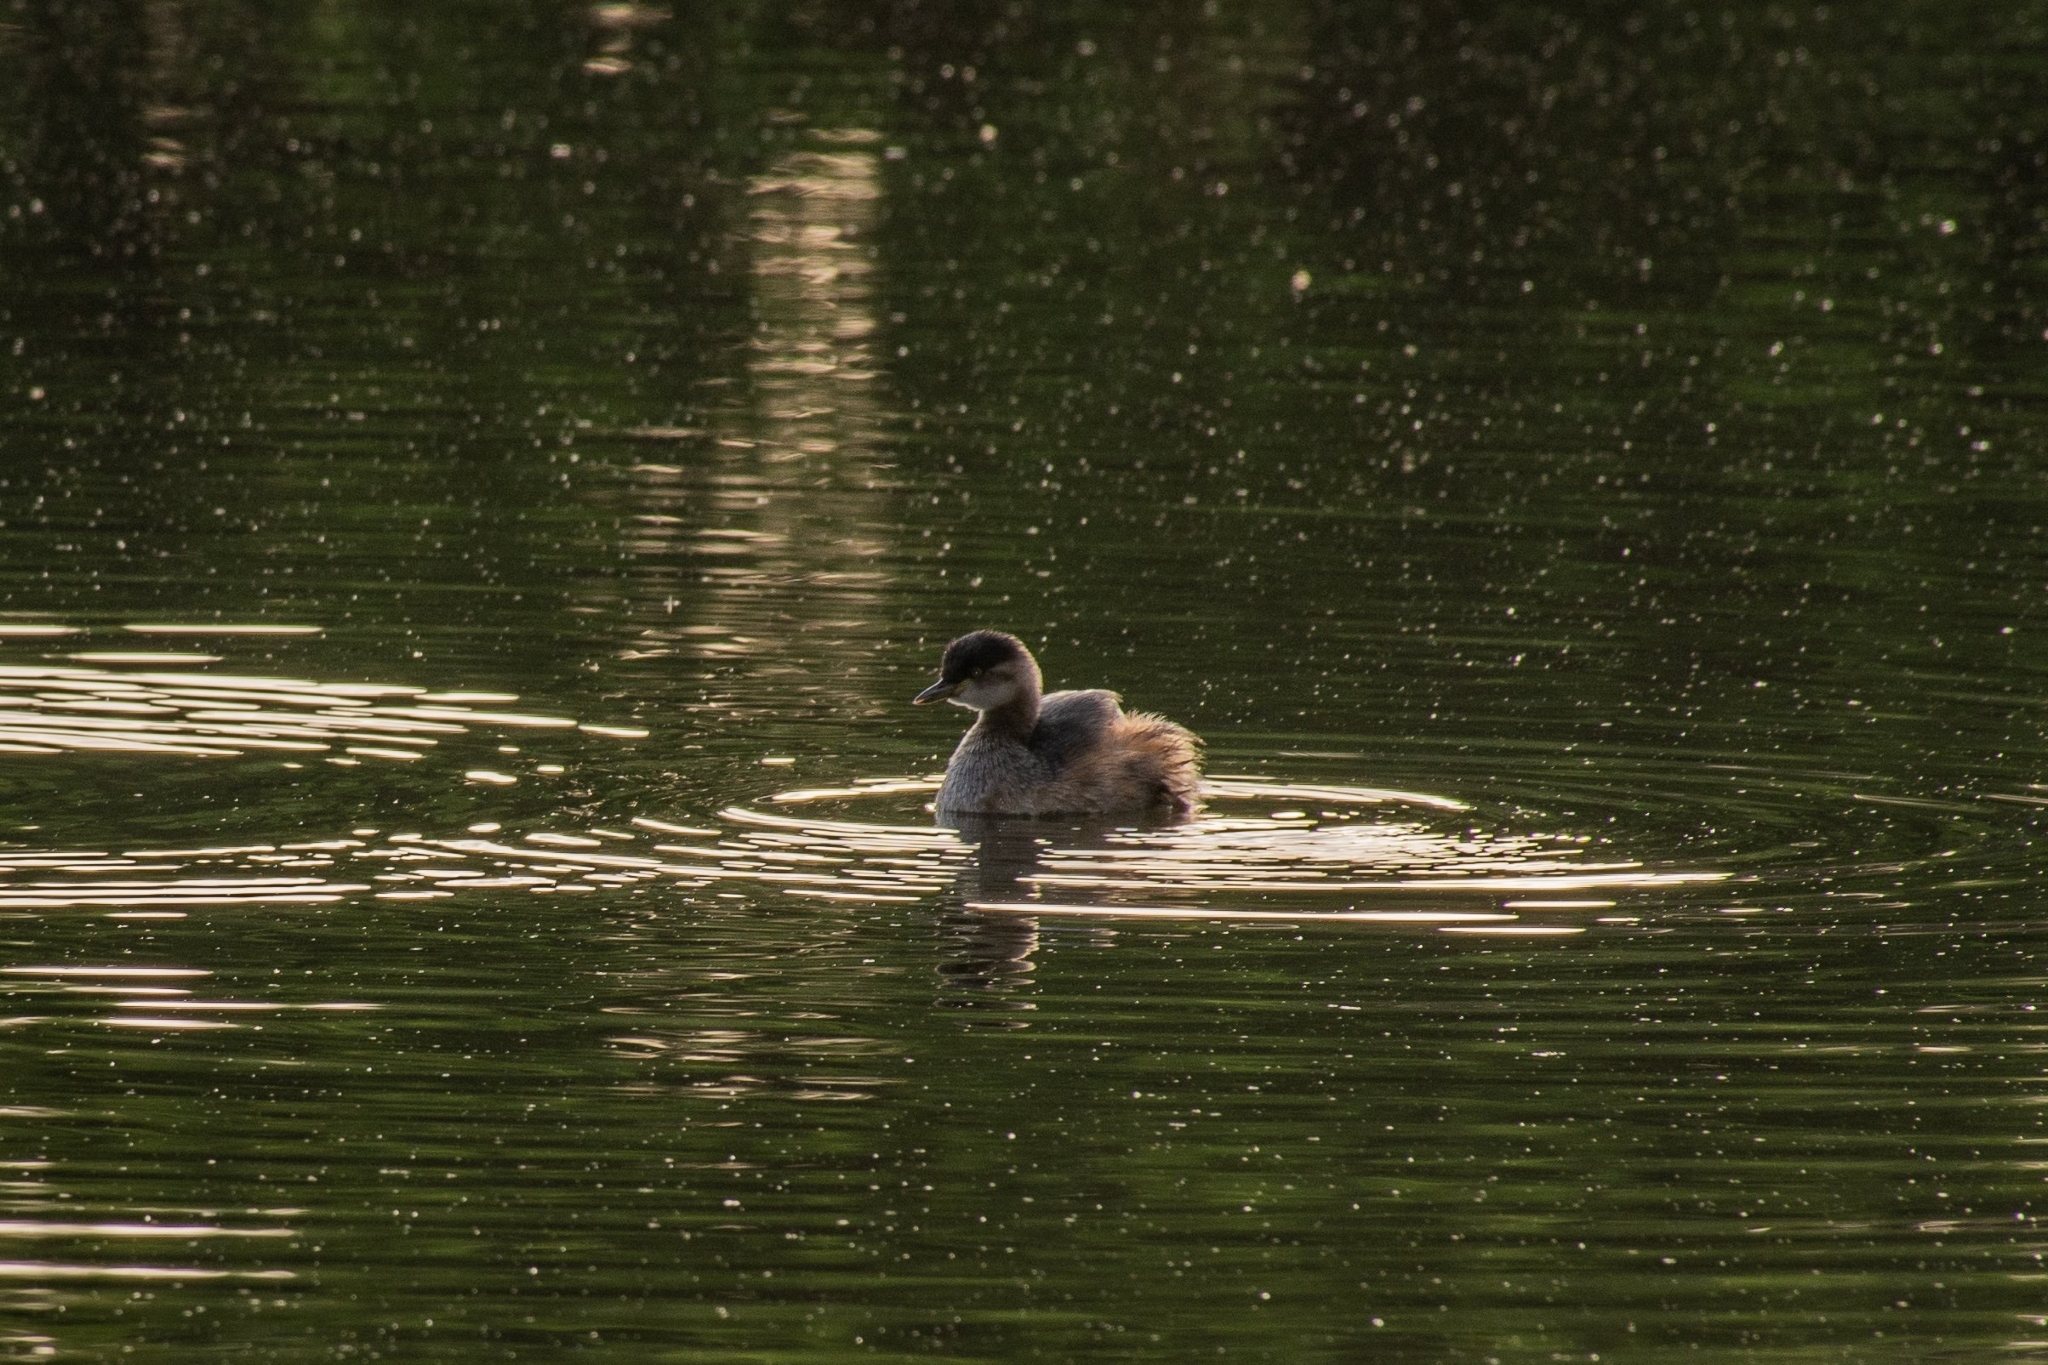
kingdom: Animalia
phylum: Chordata
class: Aves
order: Podicipediformes
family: Podicipedidae
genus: Tachybaptus
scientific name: Tachybaptus novaehollandiae
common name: Australasian grebe
